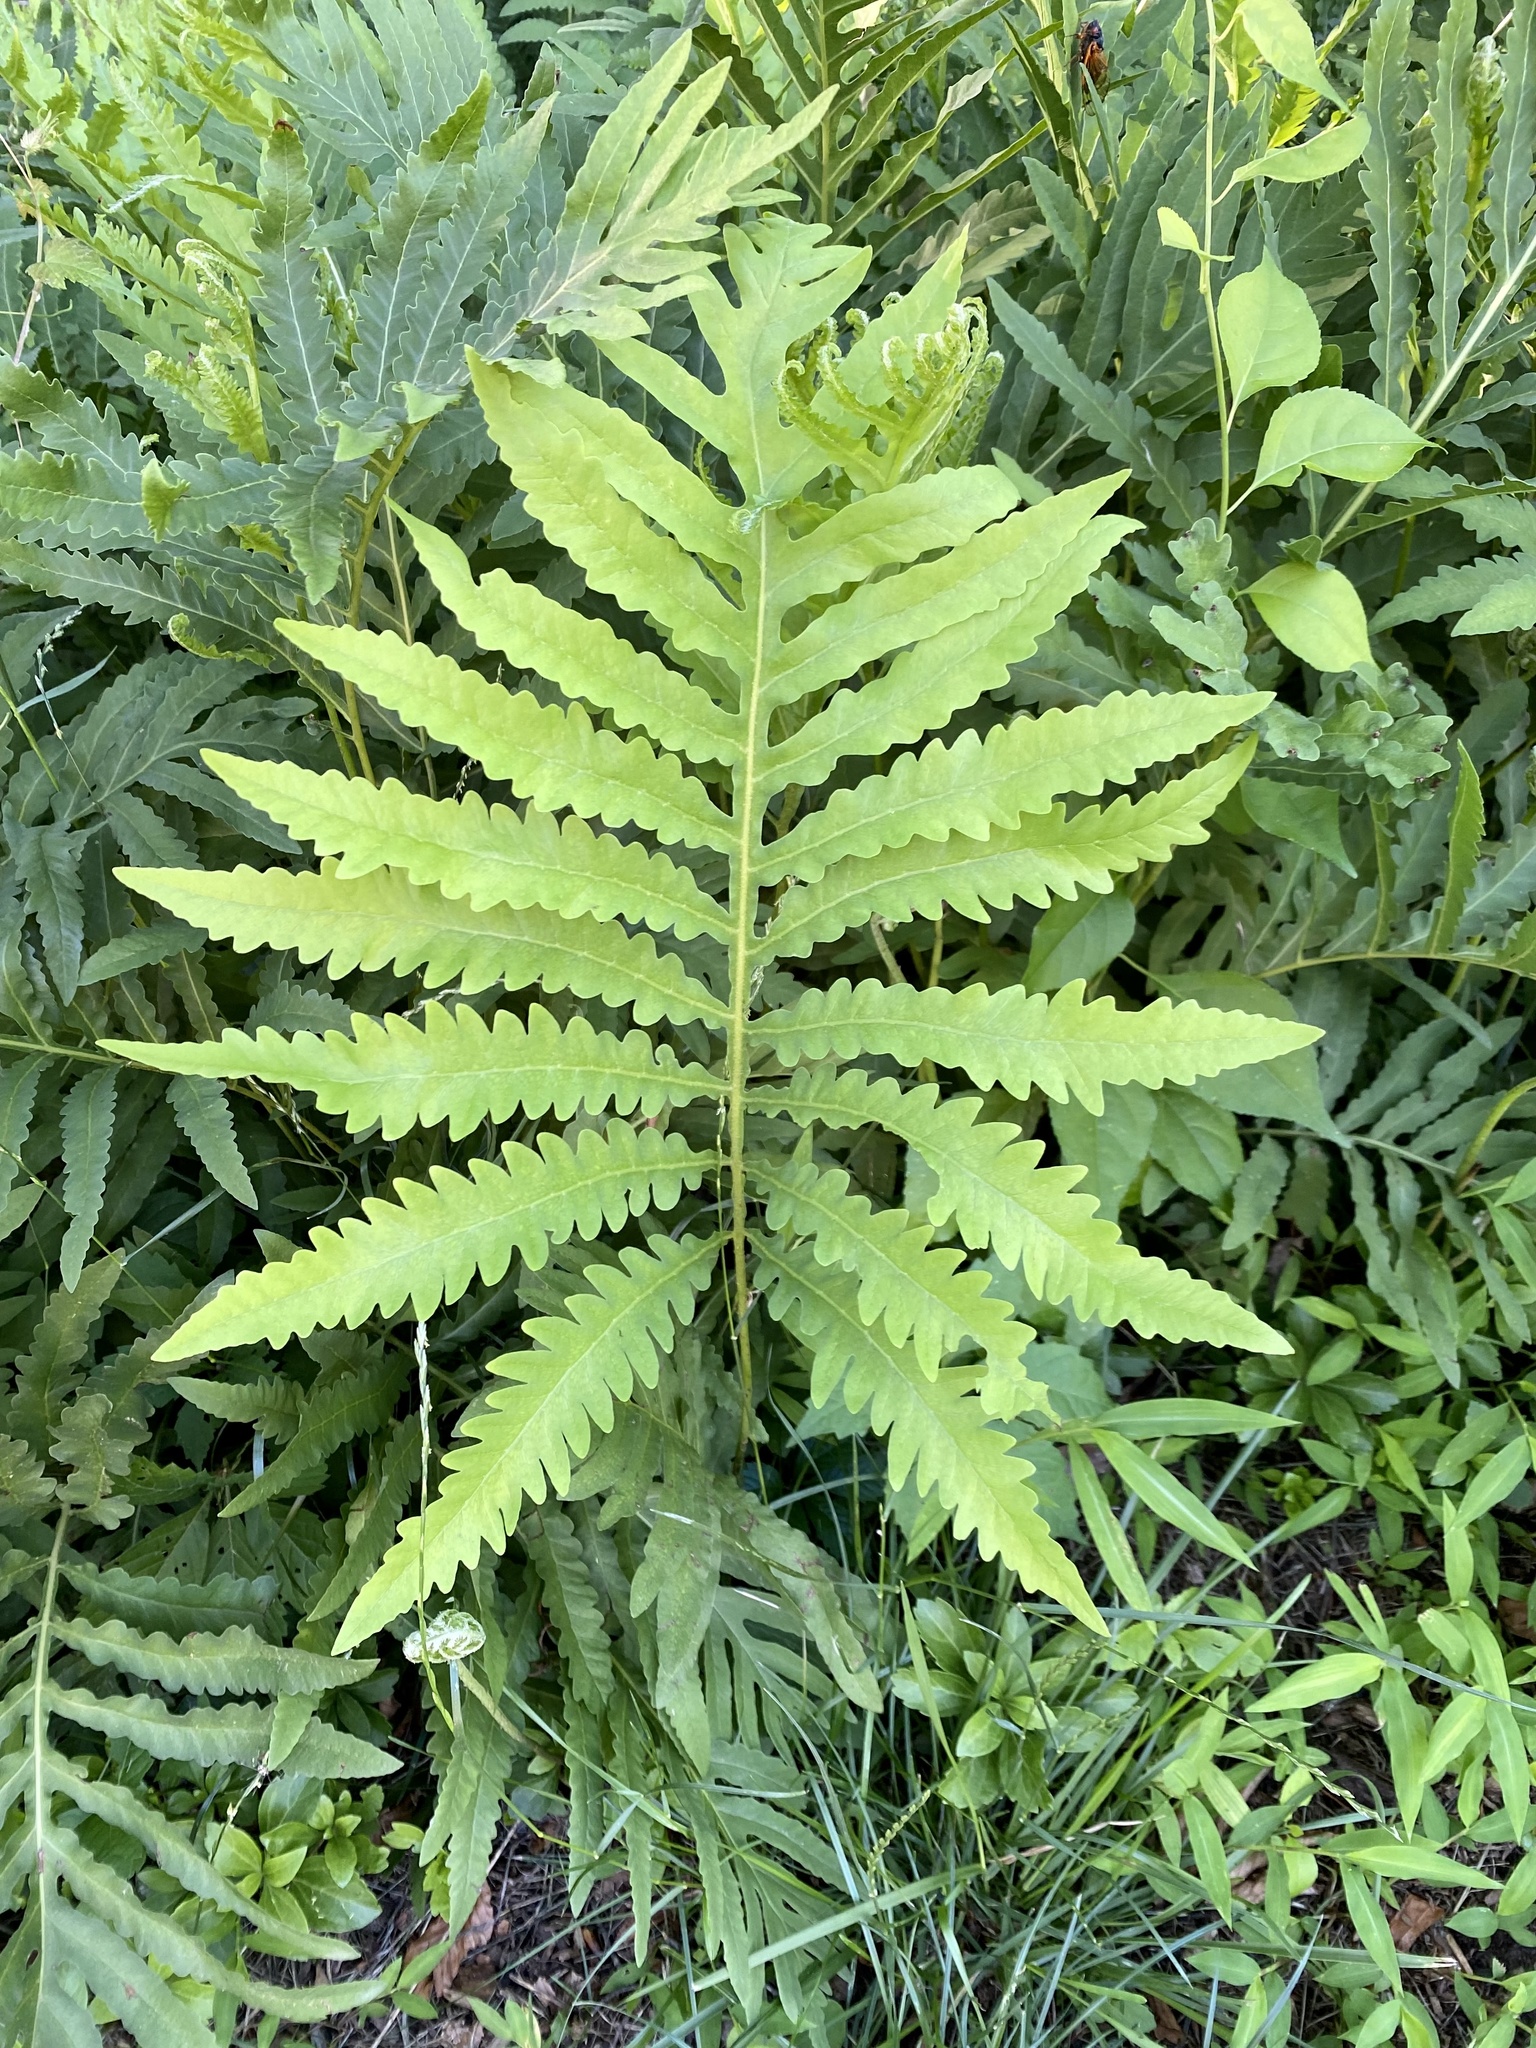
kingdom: Plantae
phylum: Tracheophyta
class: Polypodiopsida
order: Polypodiales
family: Onocleaceae
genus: Onoclea
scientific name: Onoclea sensibilis
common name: Sensitive fern
